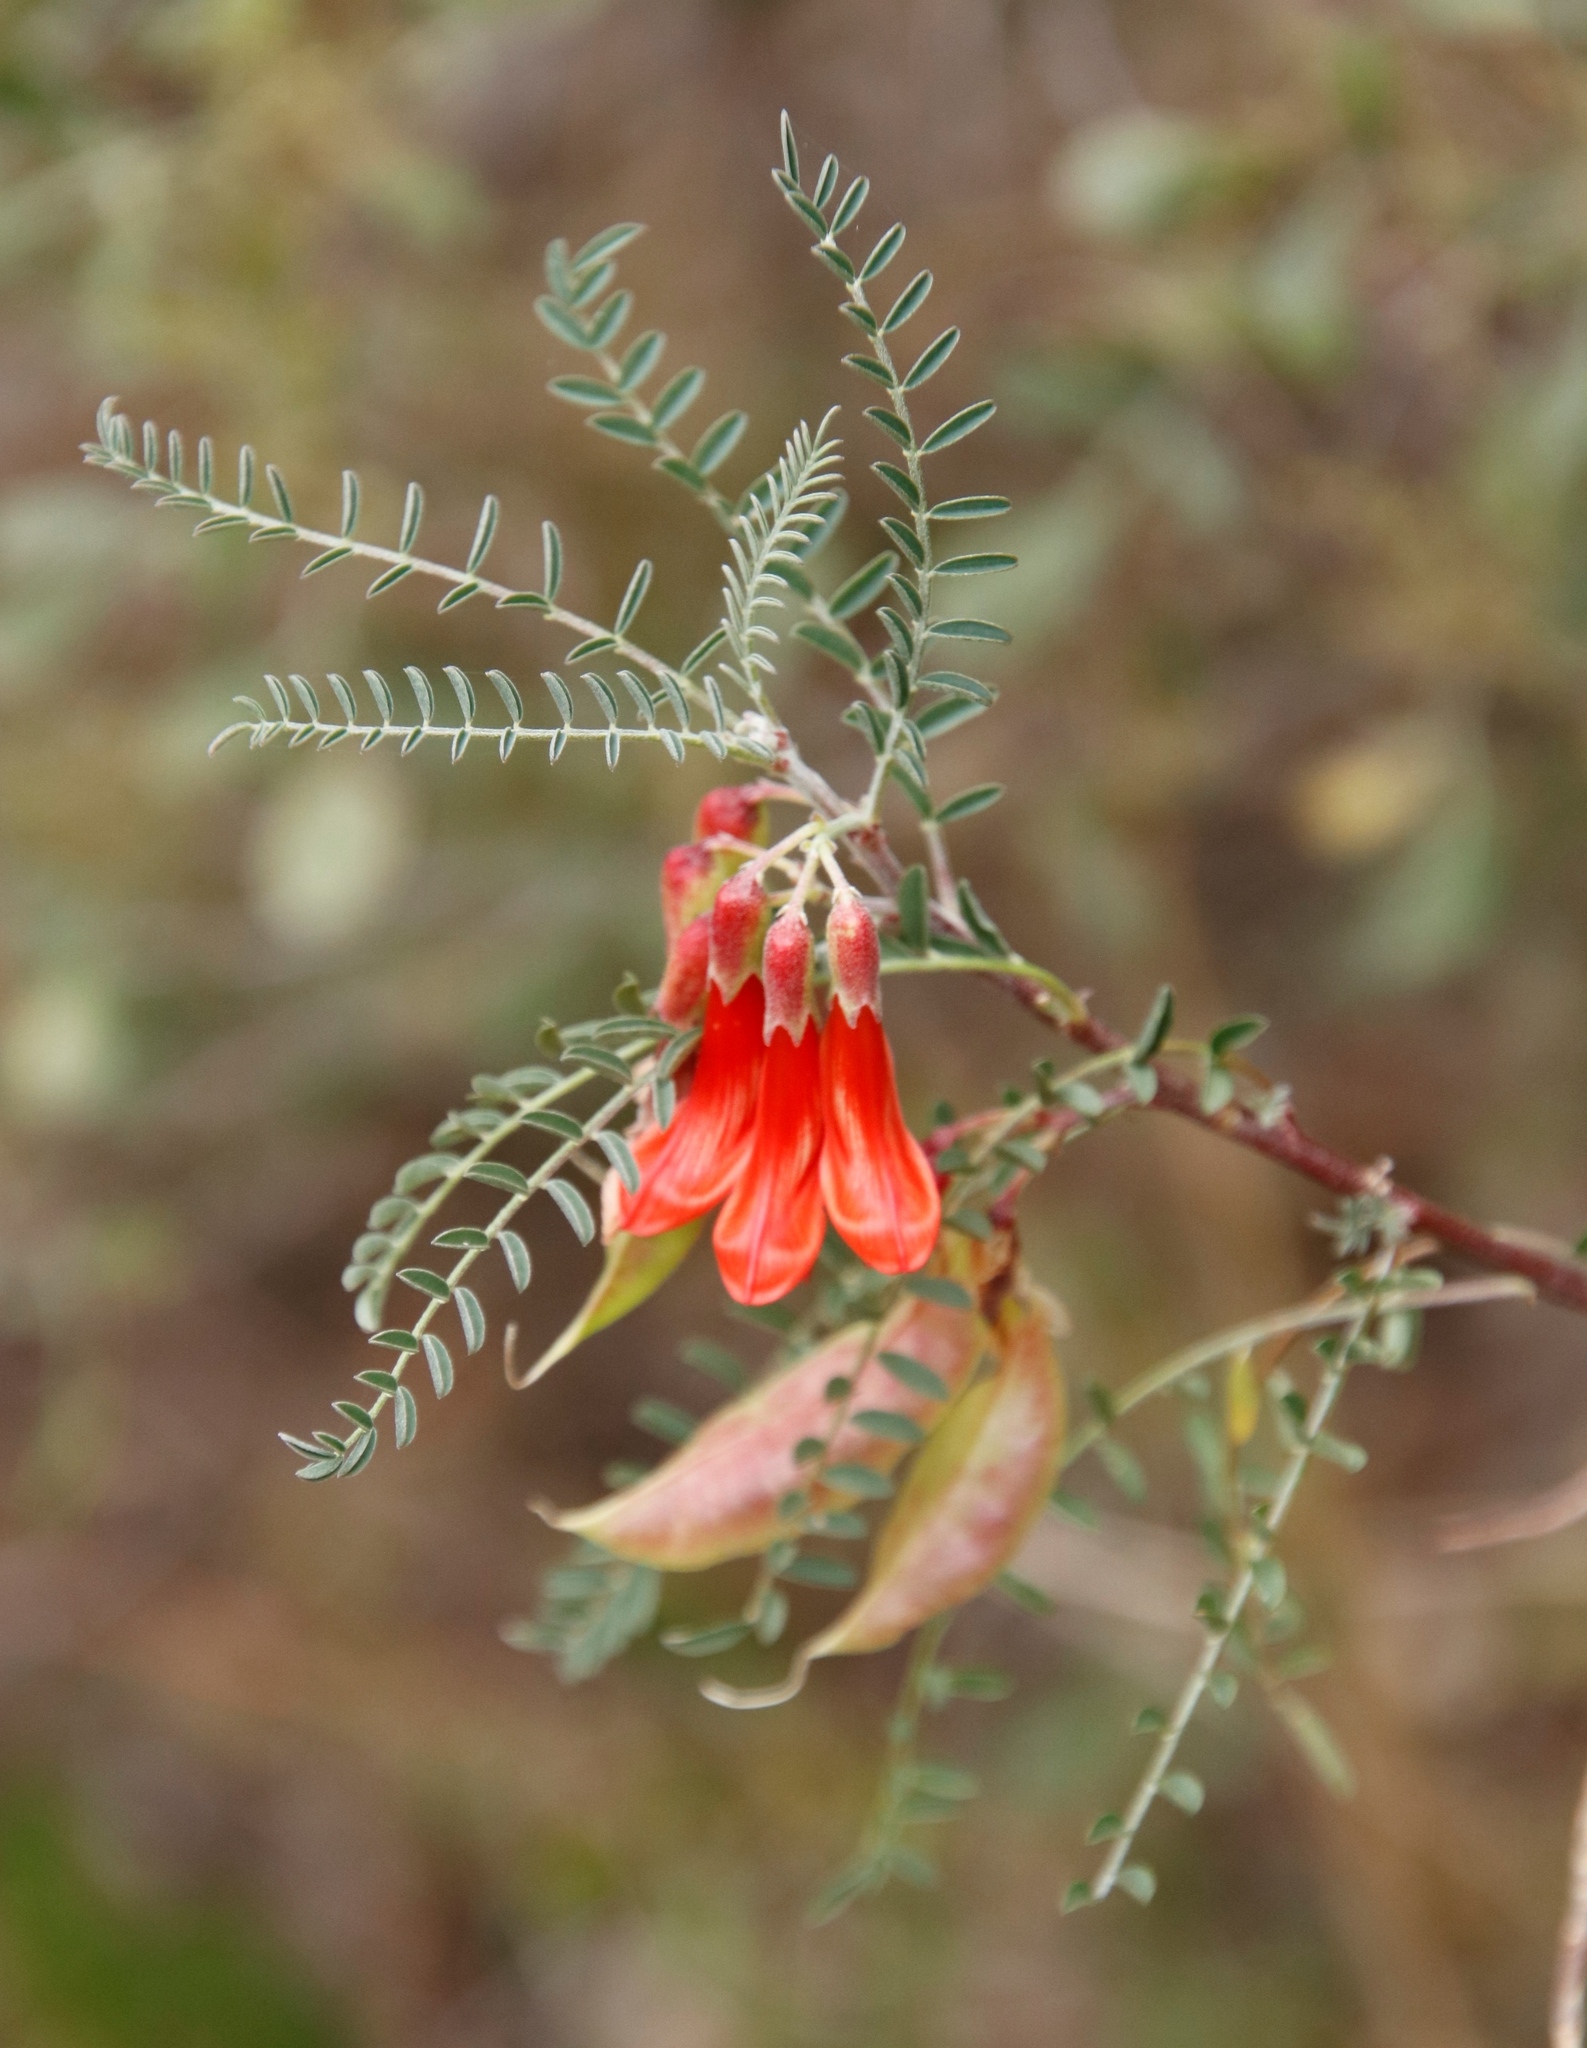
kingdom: Plantae
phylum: Tracheophyta
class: Magnoliopsida
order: Fabales
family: Fabaceae
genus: Lessertia
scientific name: Lessertia frutescens
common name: Balloon-pea
